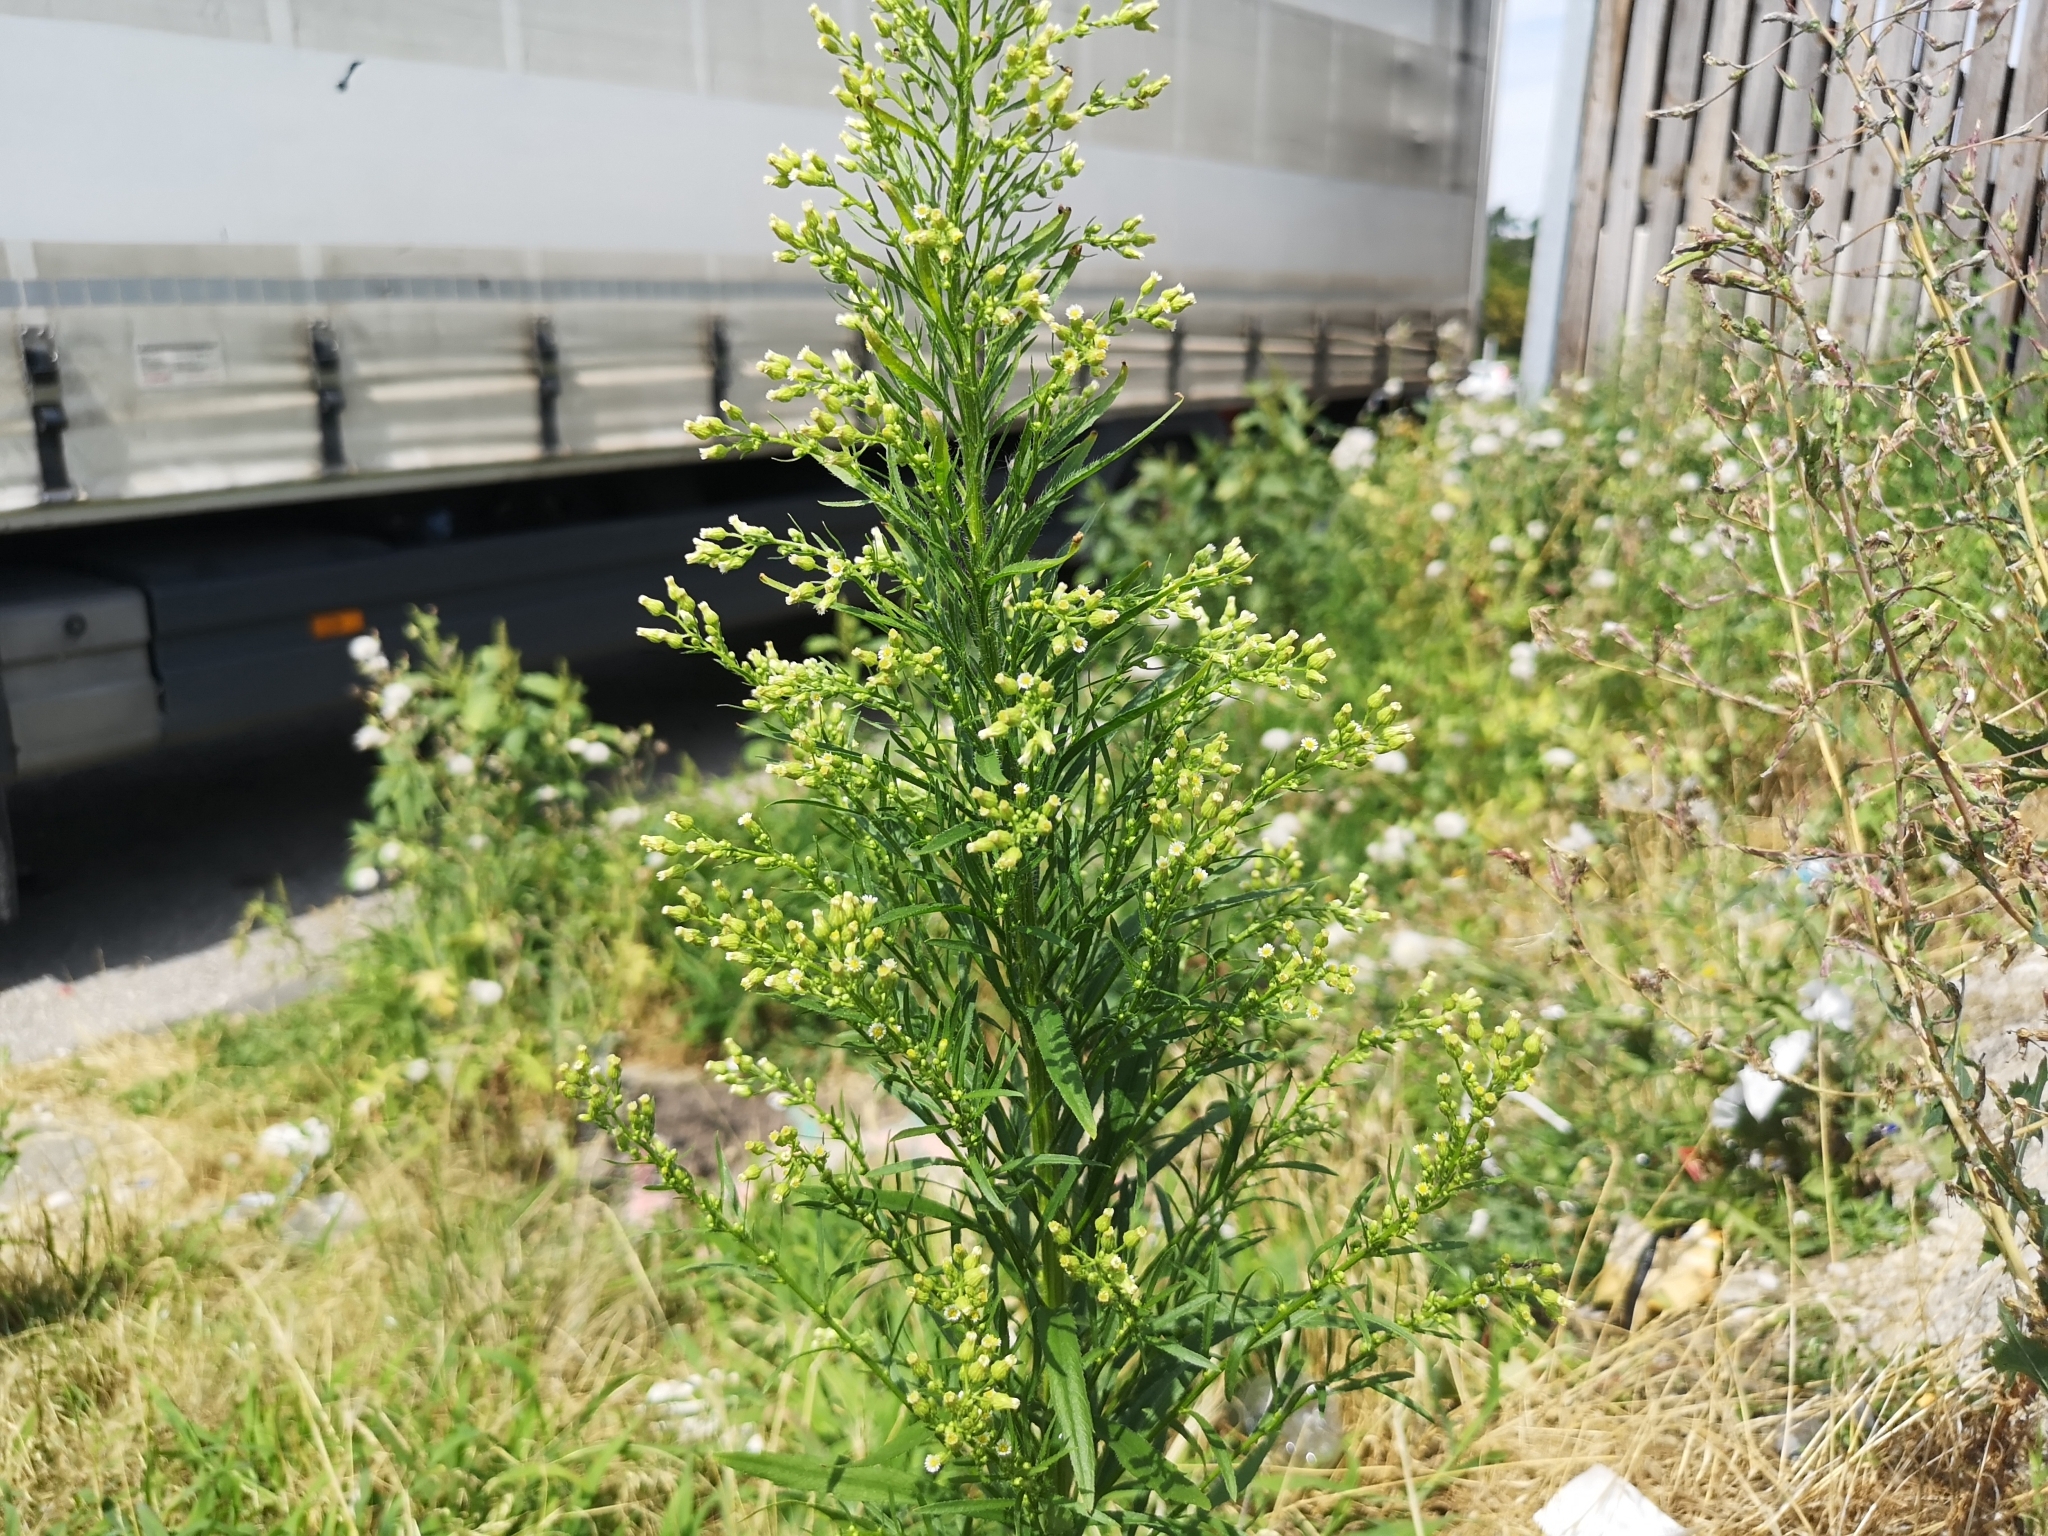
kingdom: Plantae
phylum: Tracheophyta
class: Magnoliopsida
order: Asterales
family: Asteraceae
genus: Erigeron
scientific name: Erigeron canadensis
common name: Canadian fleabane
